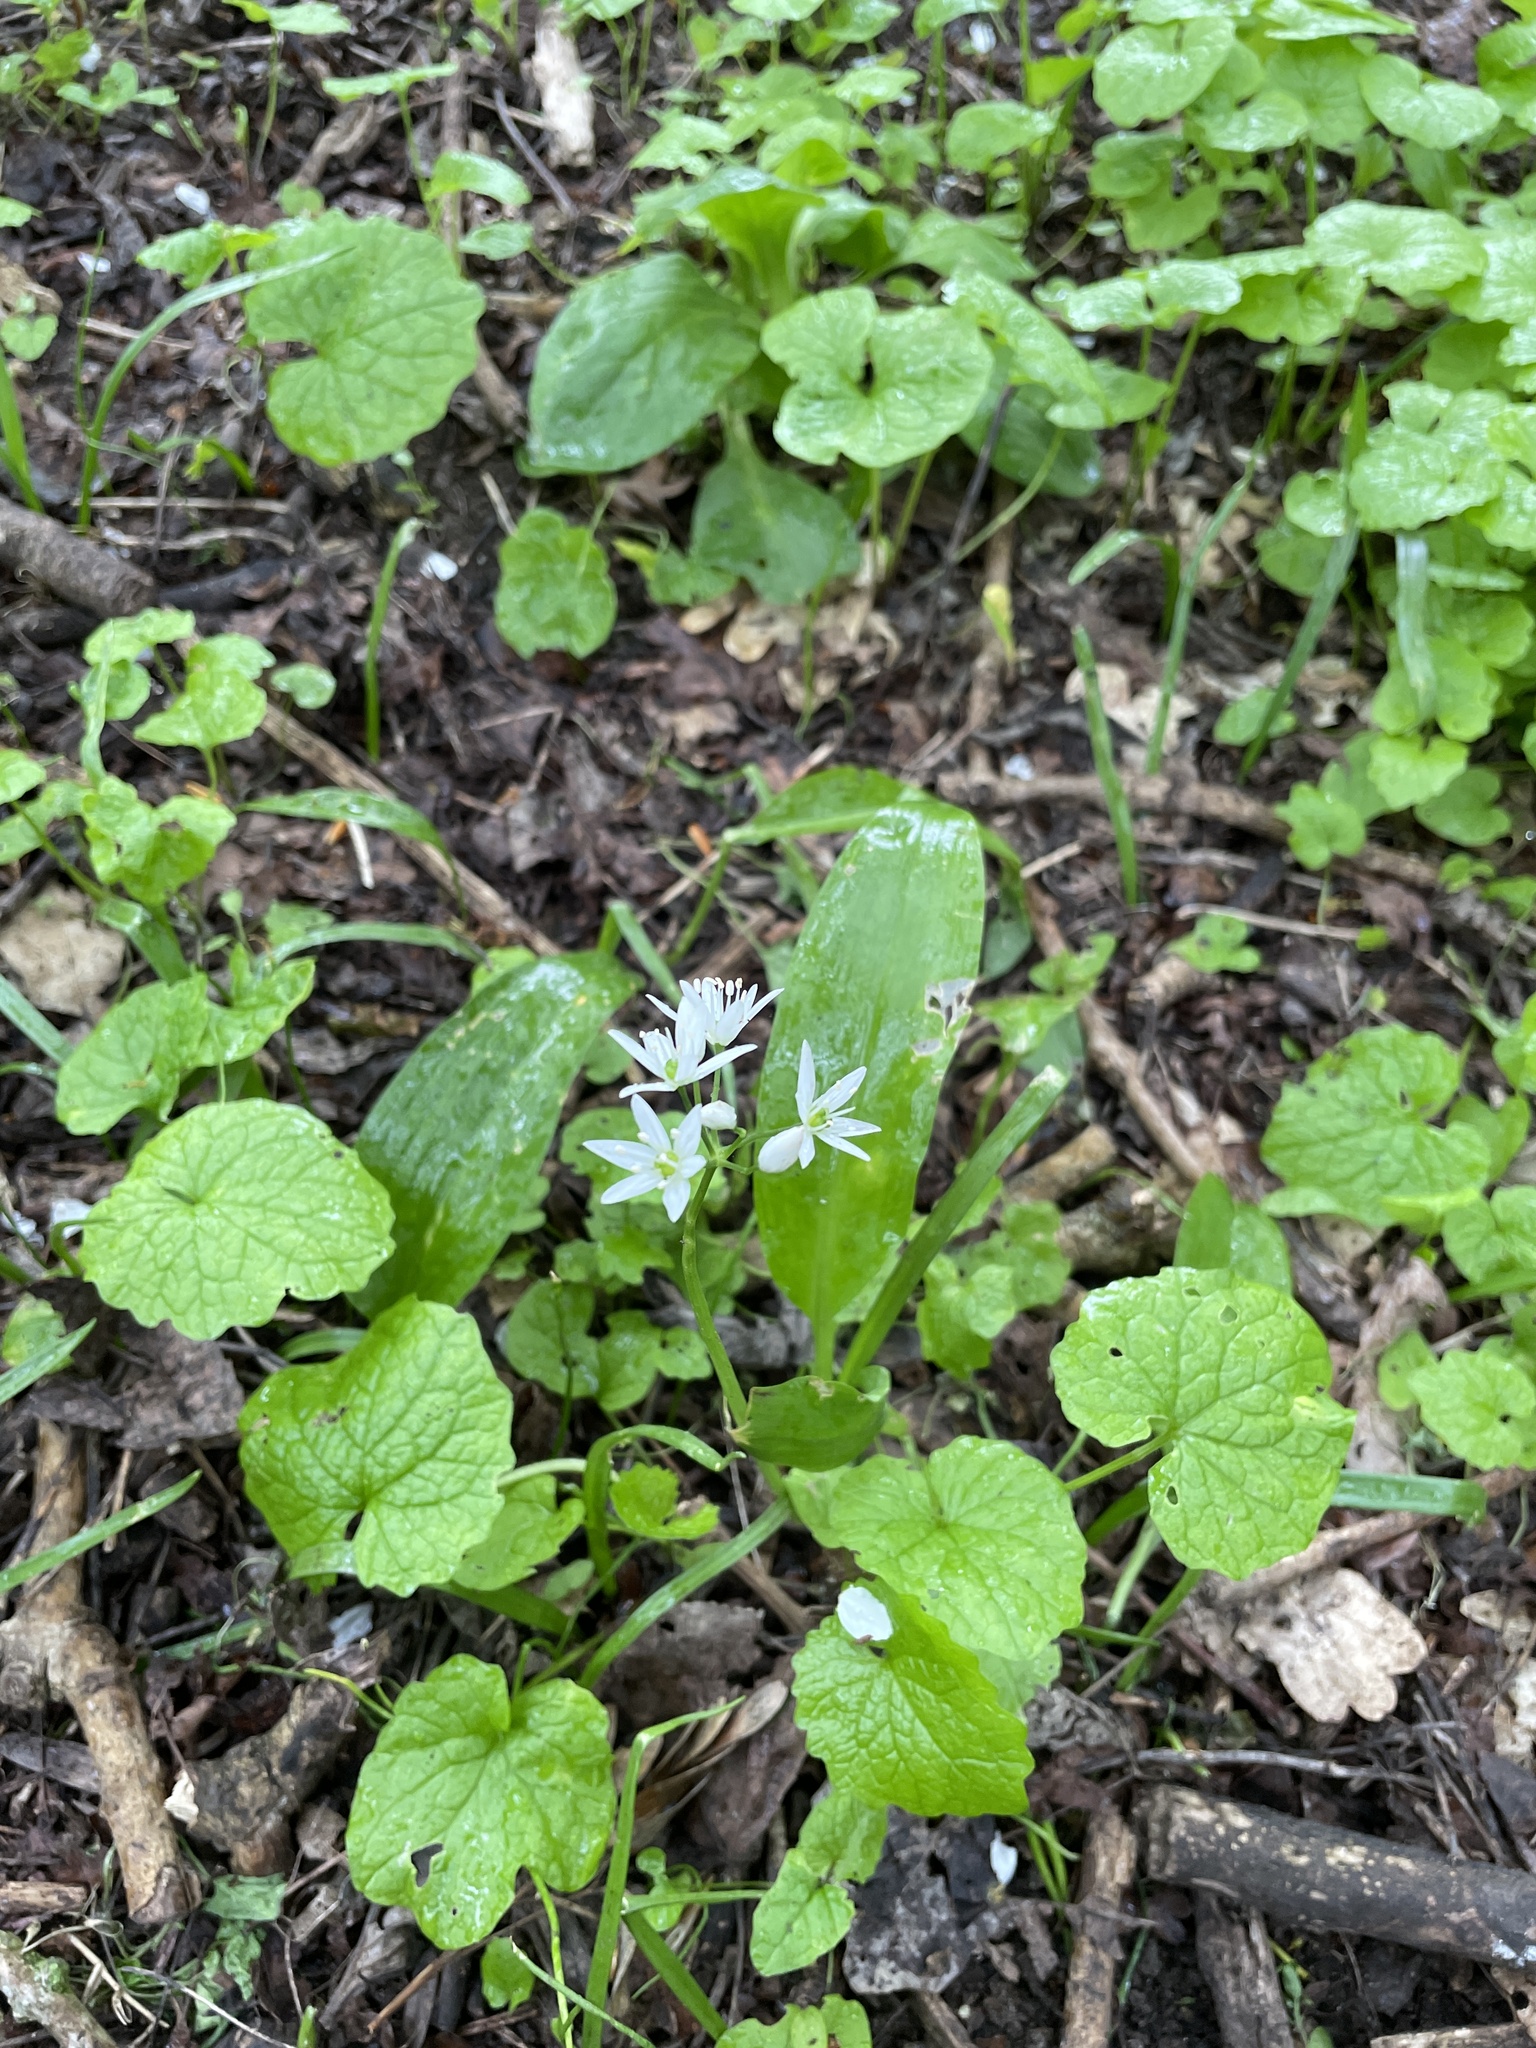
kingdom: Plantae
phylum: Tracheophyta
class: Liliopsida
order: Asparagales
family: Amaryllidaceae
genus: Allium
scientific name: Allium ursinum
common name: Ramsons
